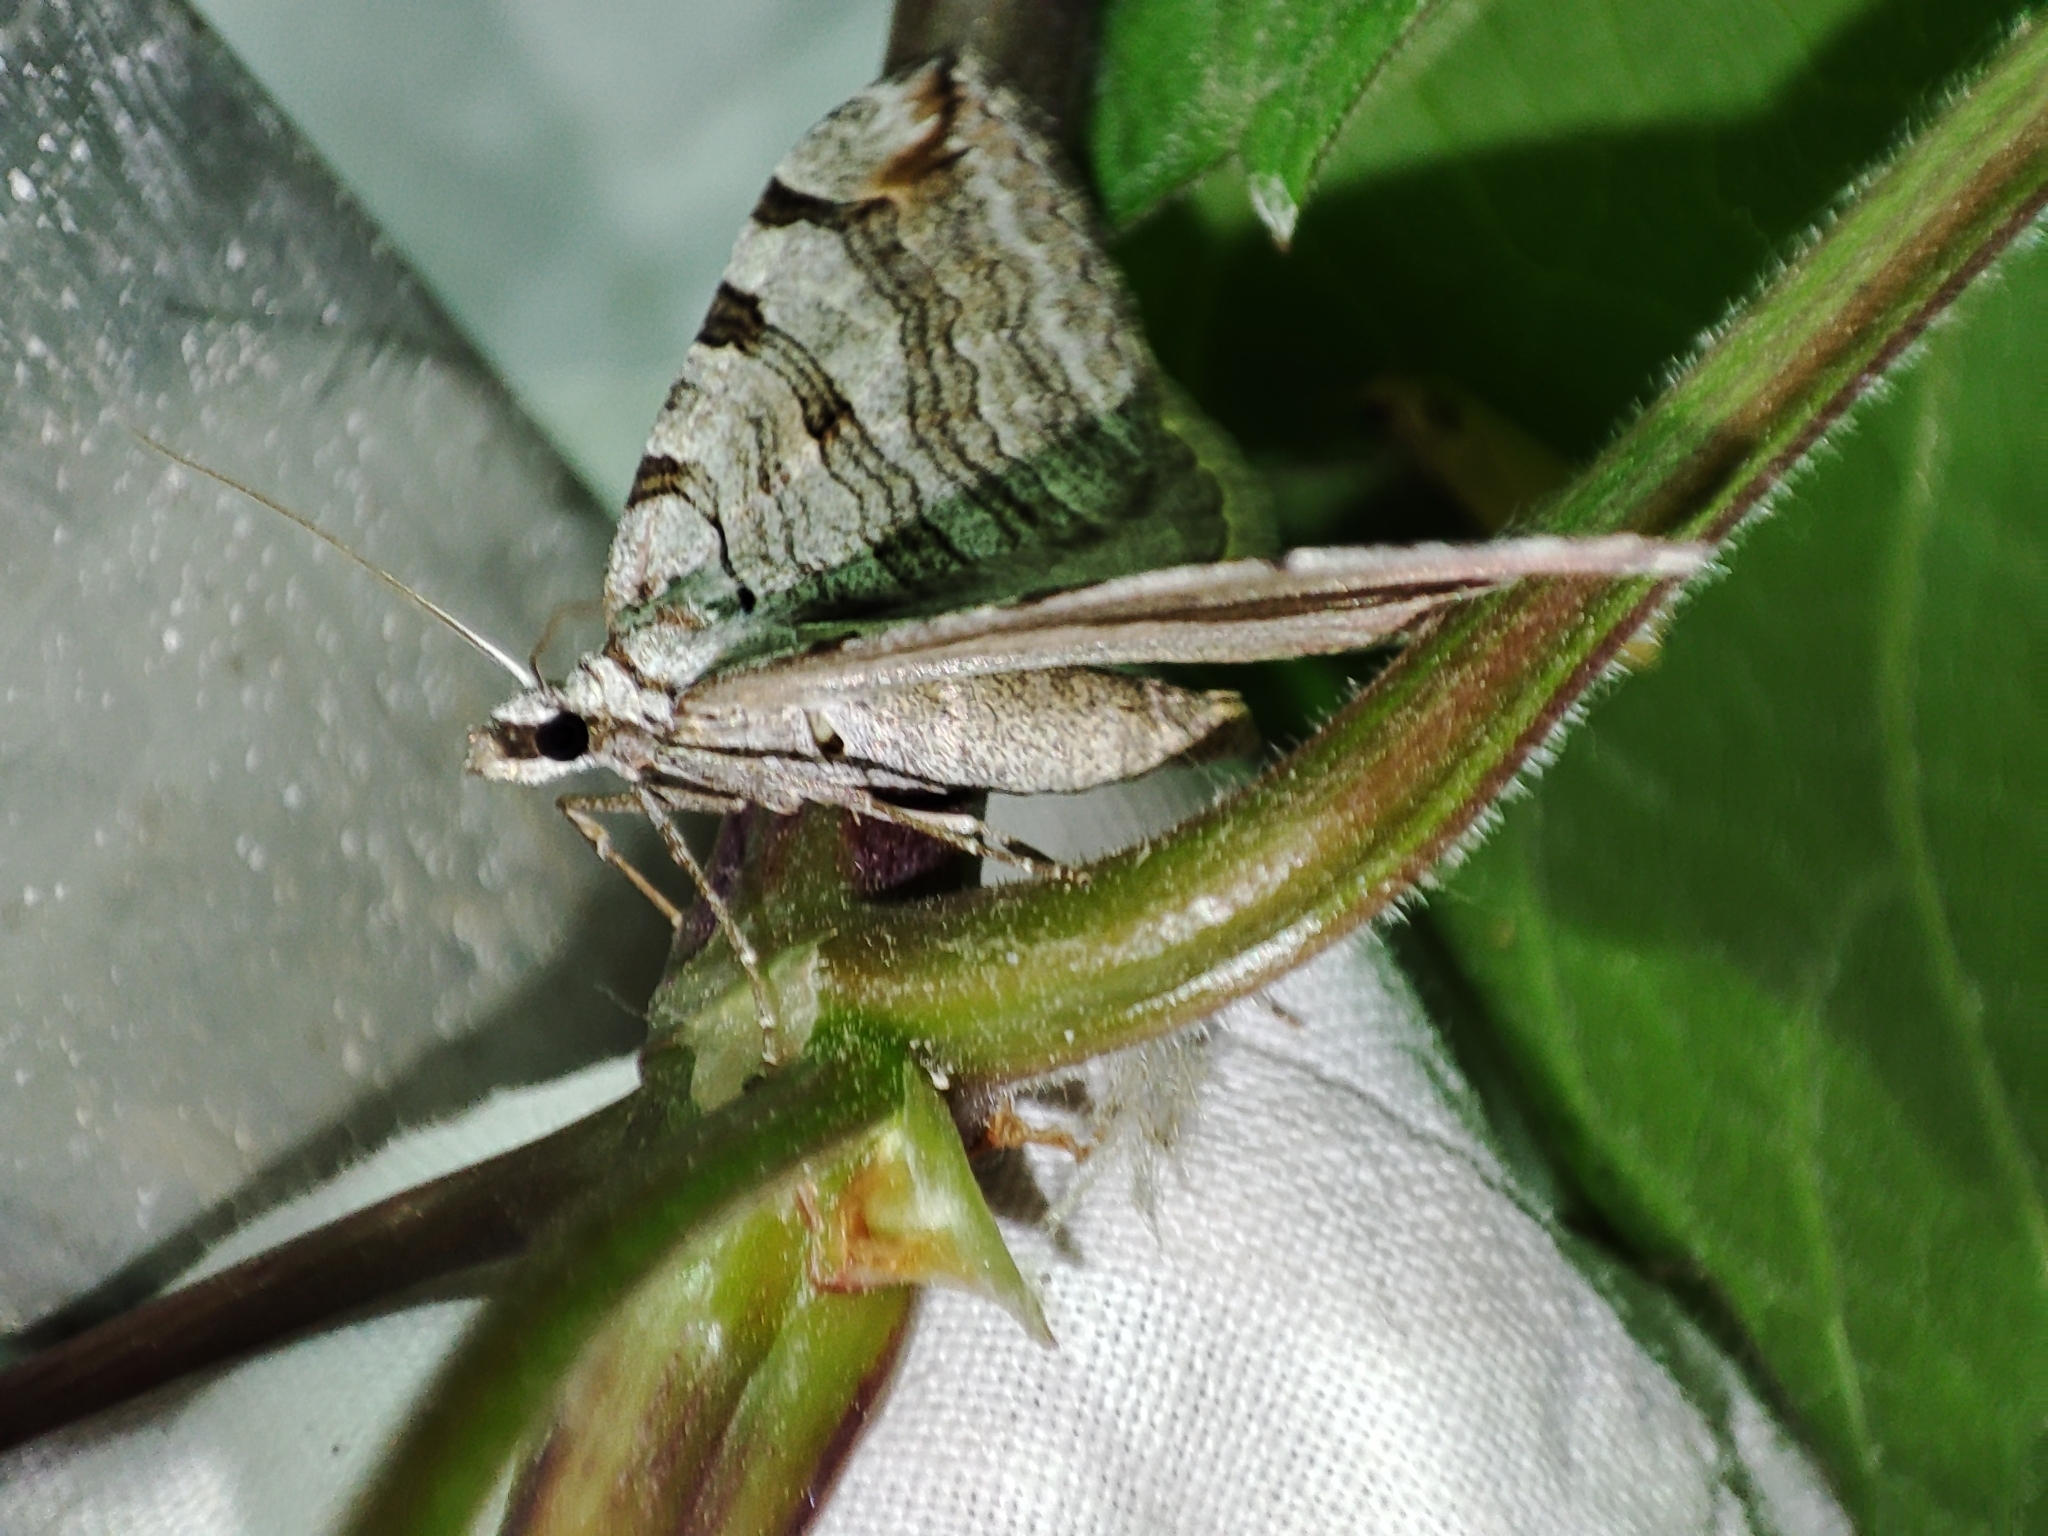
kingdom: Animalia
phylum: Arthropoda
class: Insecta
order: Lepidoptera
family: Geometridae
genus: Aplocera
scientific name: Aplocera plagiata
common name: Treble-bar
